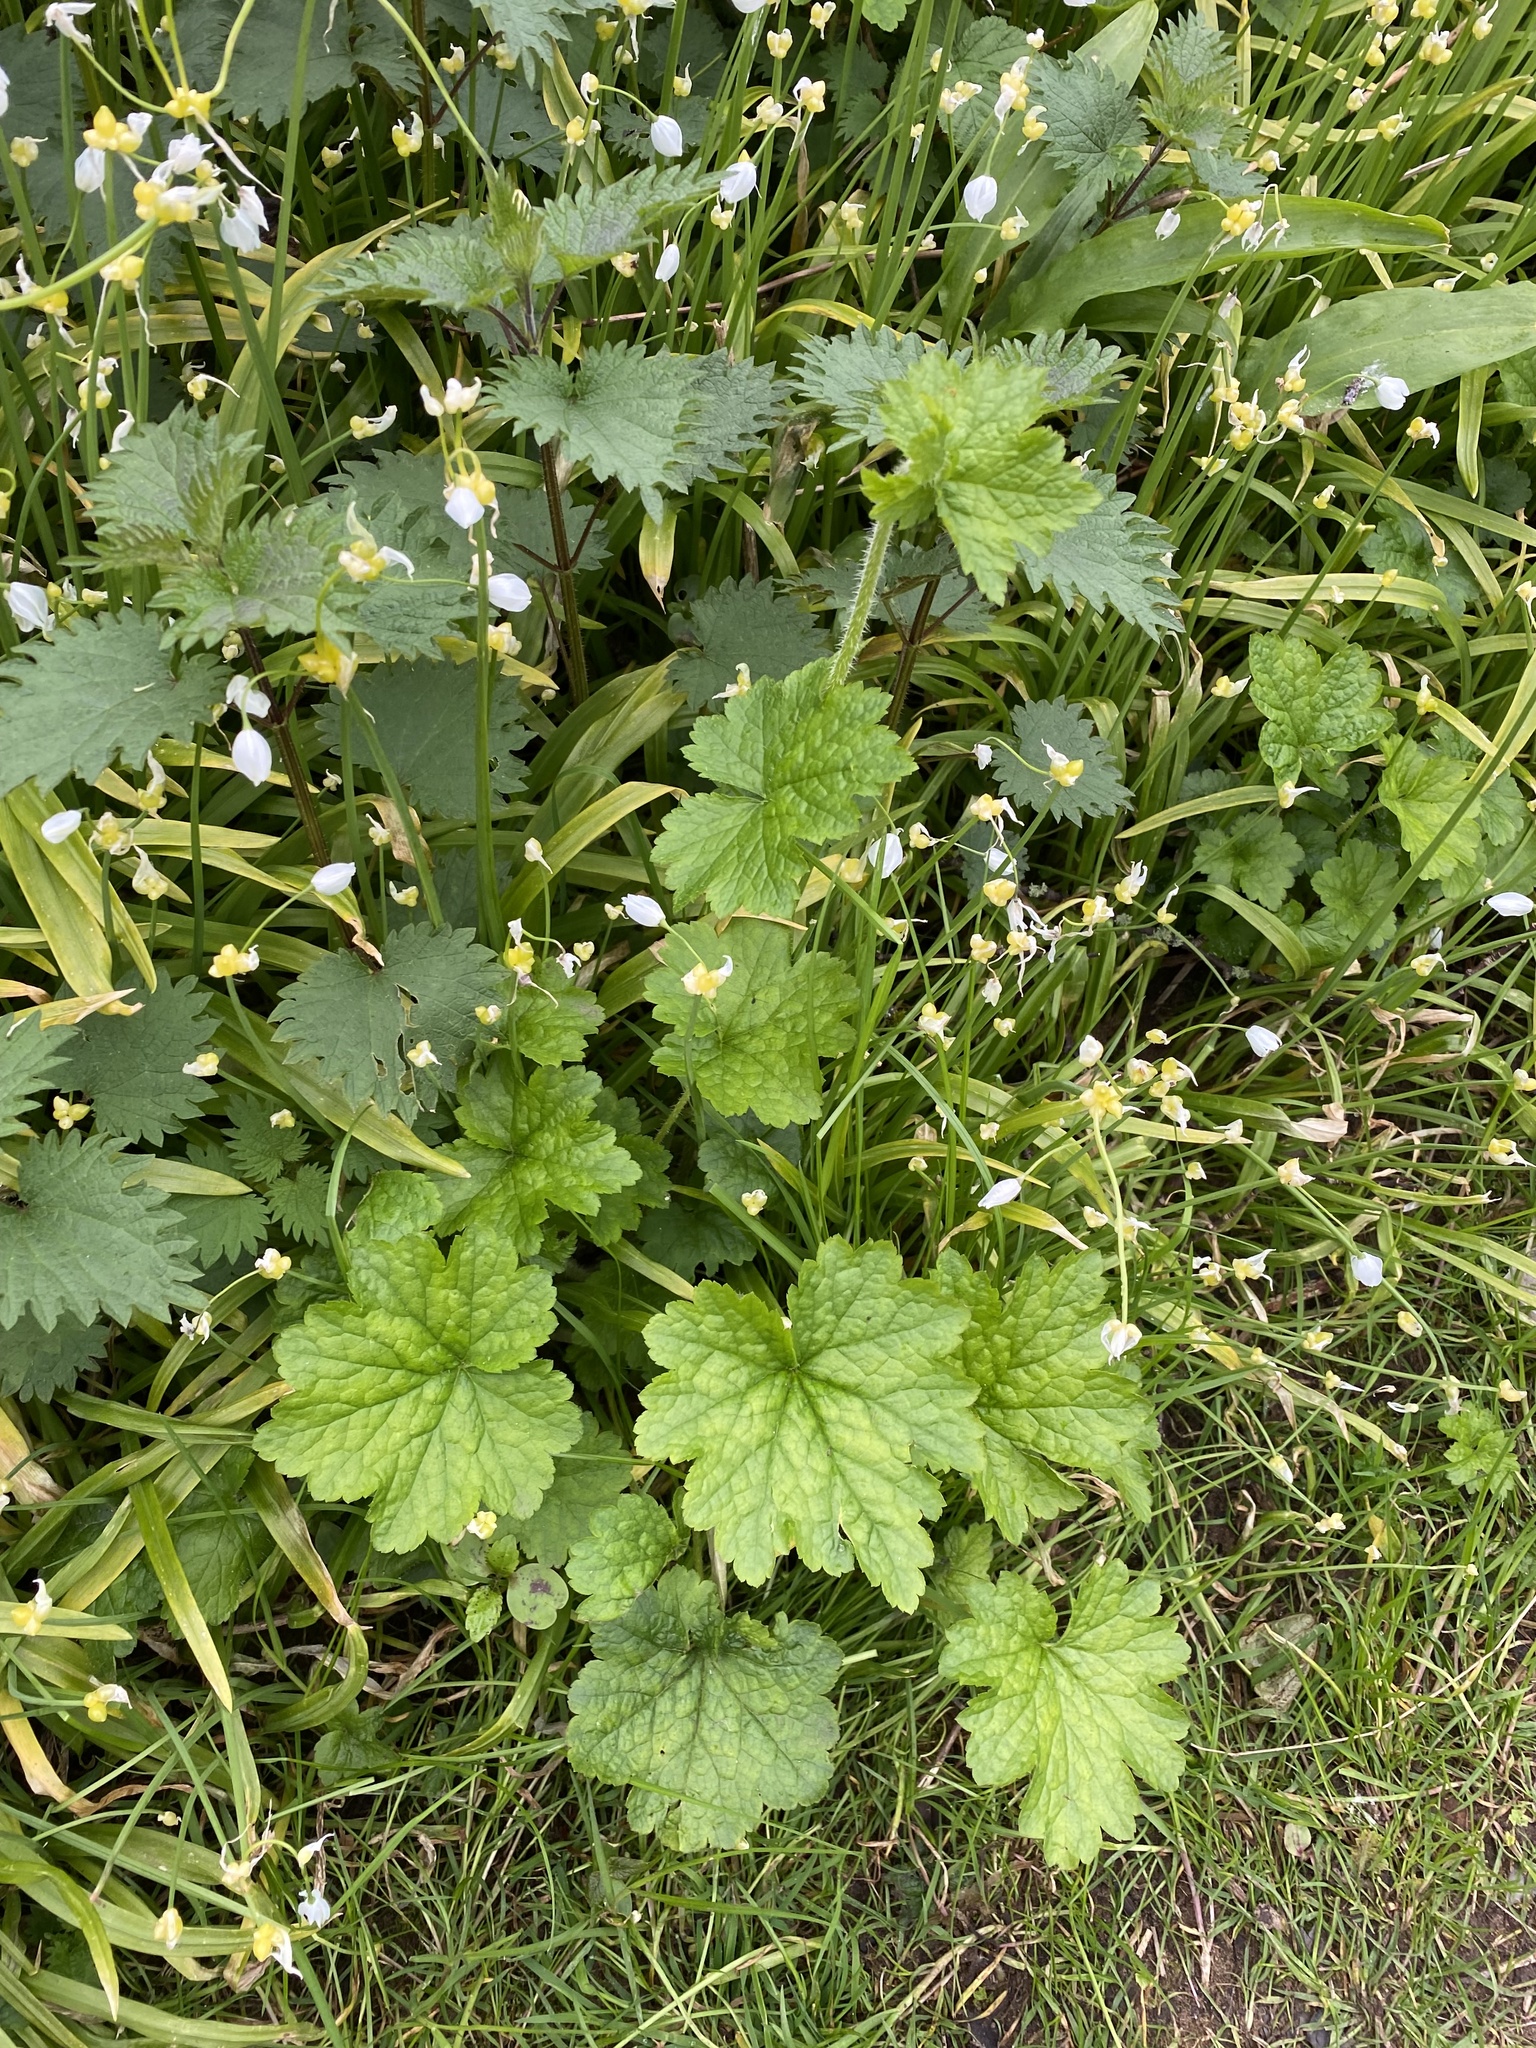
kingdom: Plantae
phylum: Tracheophyta
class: Magnoliopsida
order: Saxifragales
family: Saxifragaceae
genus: Tellima
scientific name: Tellima grandiflora
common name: Fringecups
